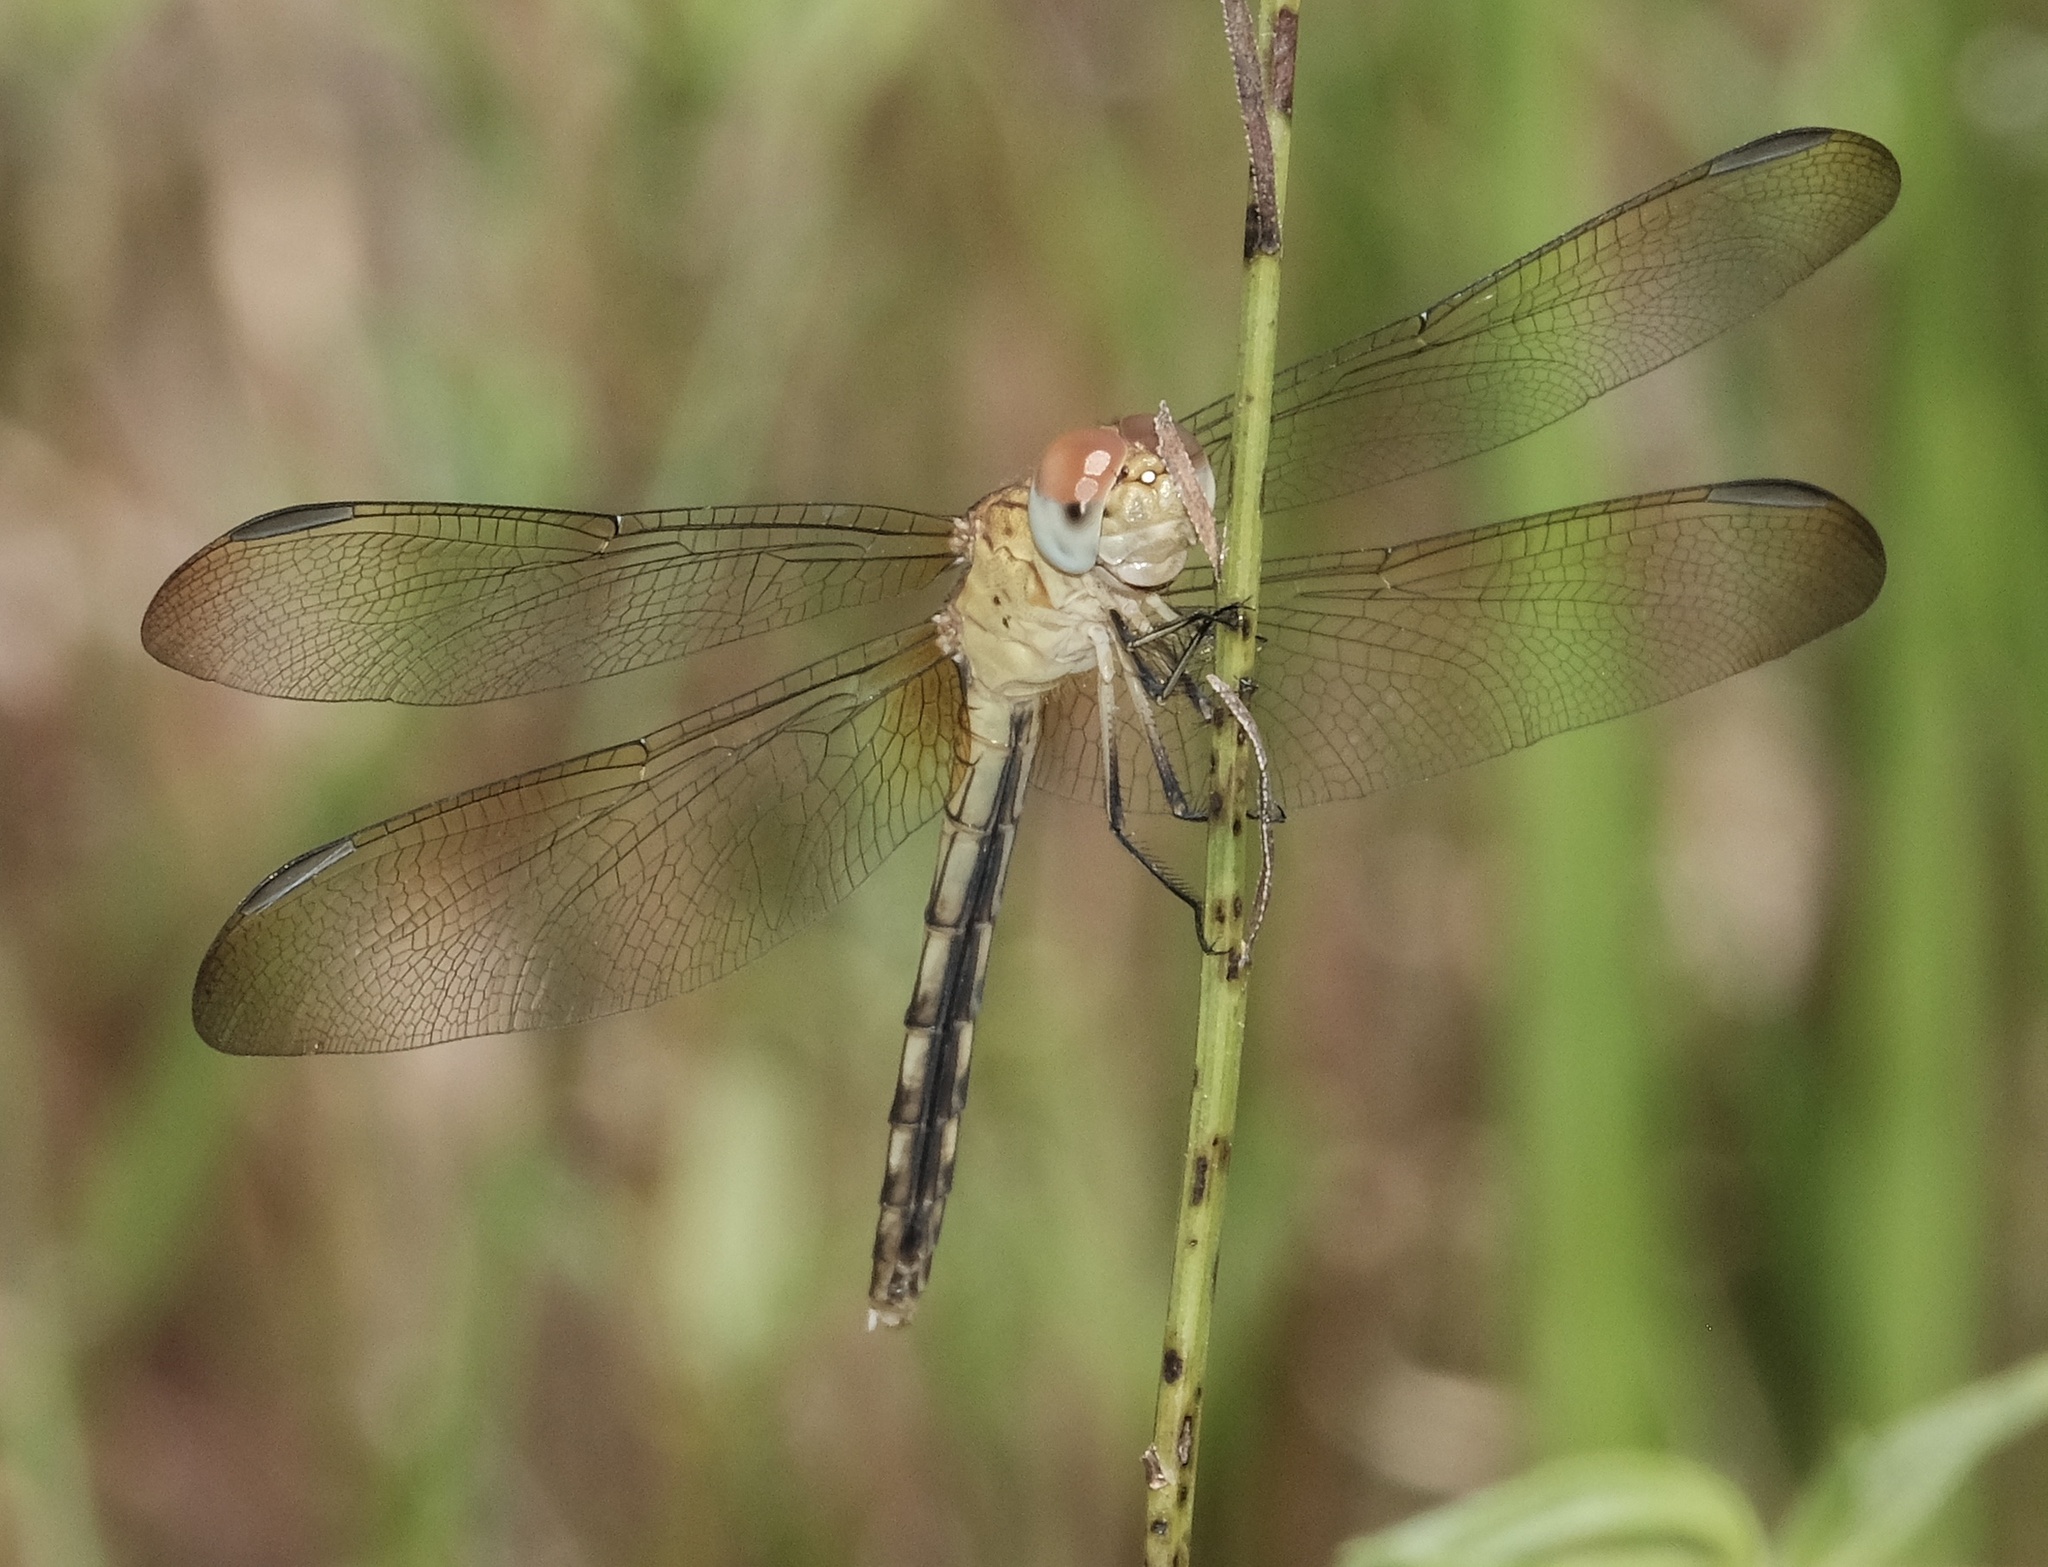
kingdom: Animalia
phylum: Arthropoda
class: Insecta
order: Odonata
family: Libellulidae
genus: Erythrodiplax
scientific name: Erythrodiplax umbrata
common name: Band-winged dragonlet
